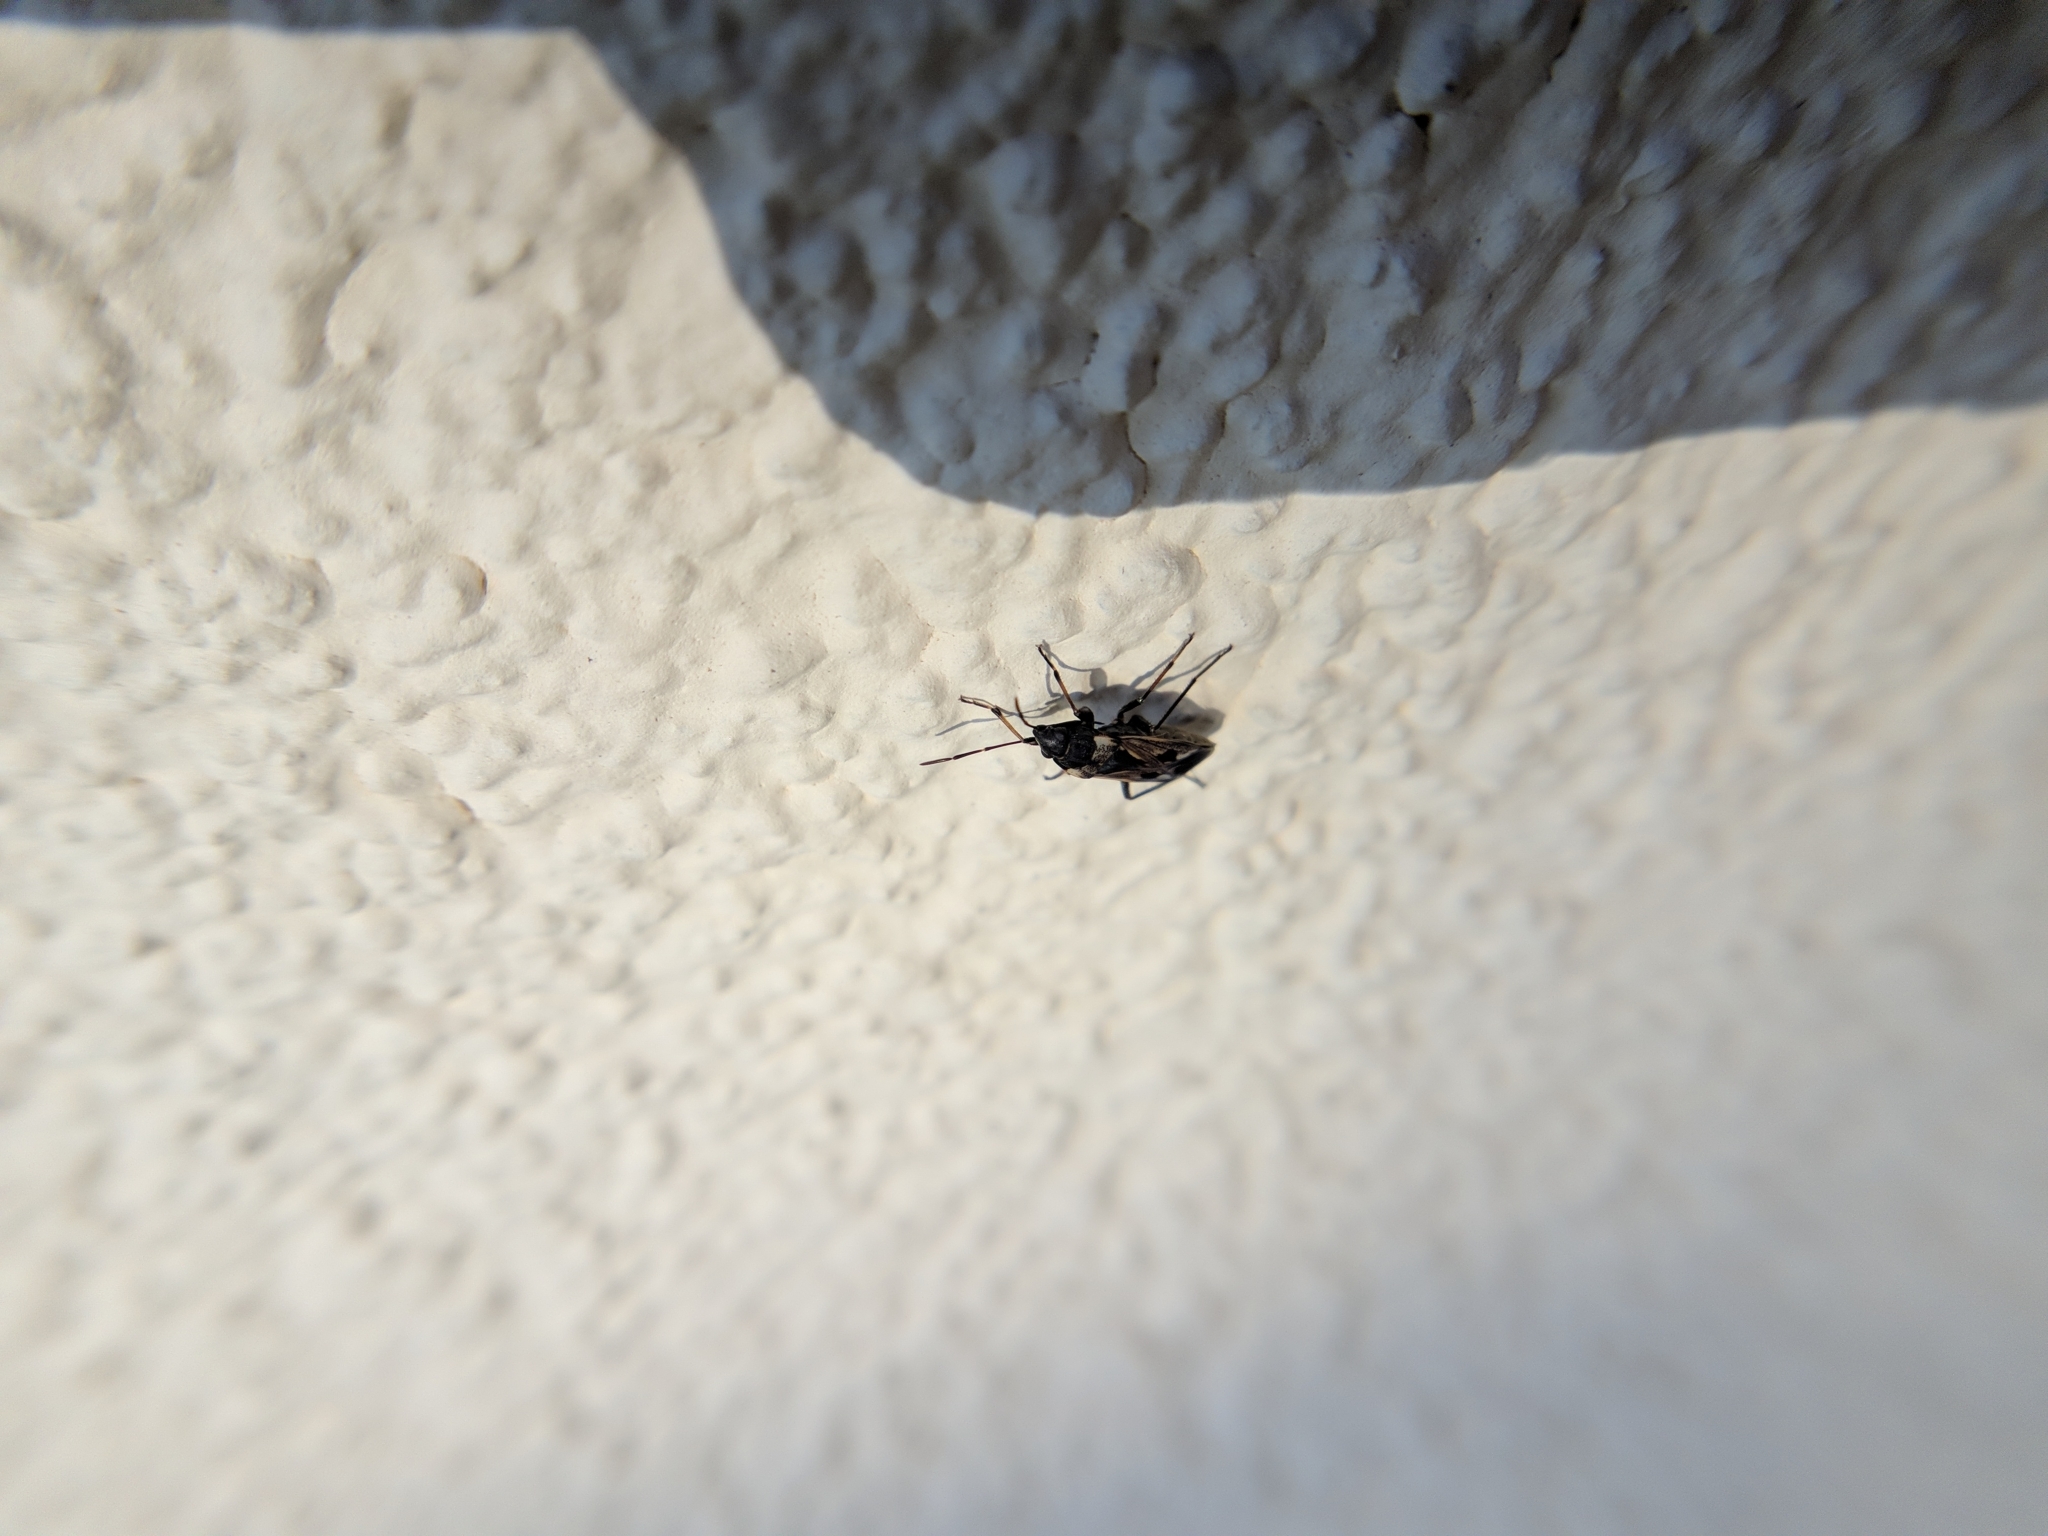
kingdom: Animalia
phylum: Arthropoda
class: Insecta
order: Hemiptera
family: Rhyparochromidae
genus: Rhyparochromus
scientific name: Rhyparochromus vulgaris
